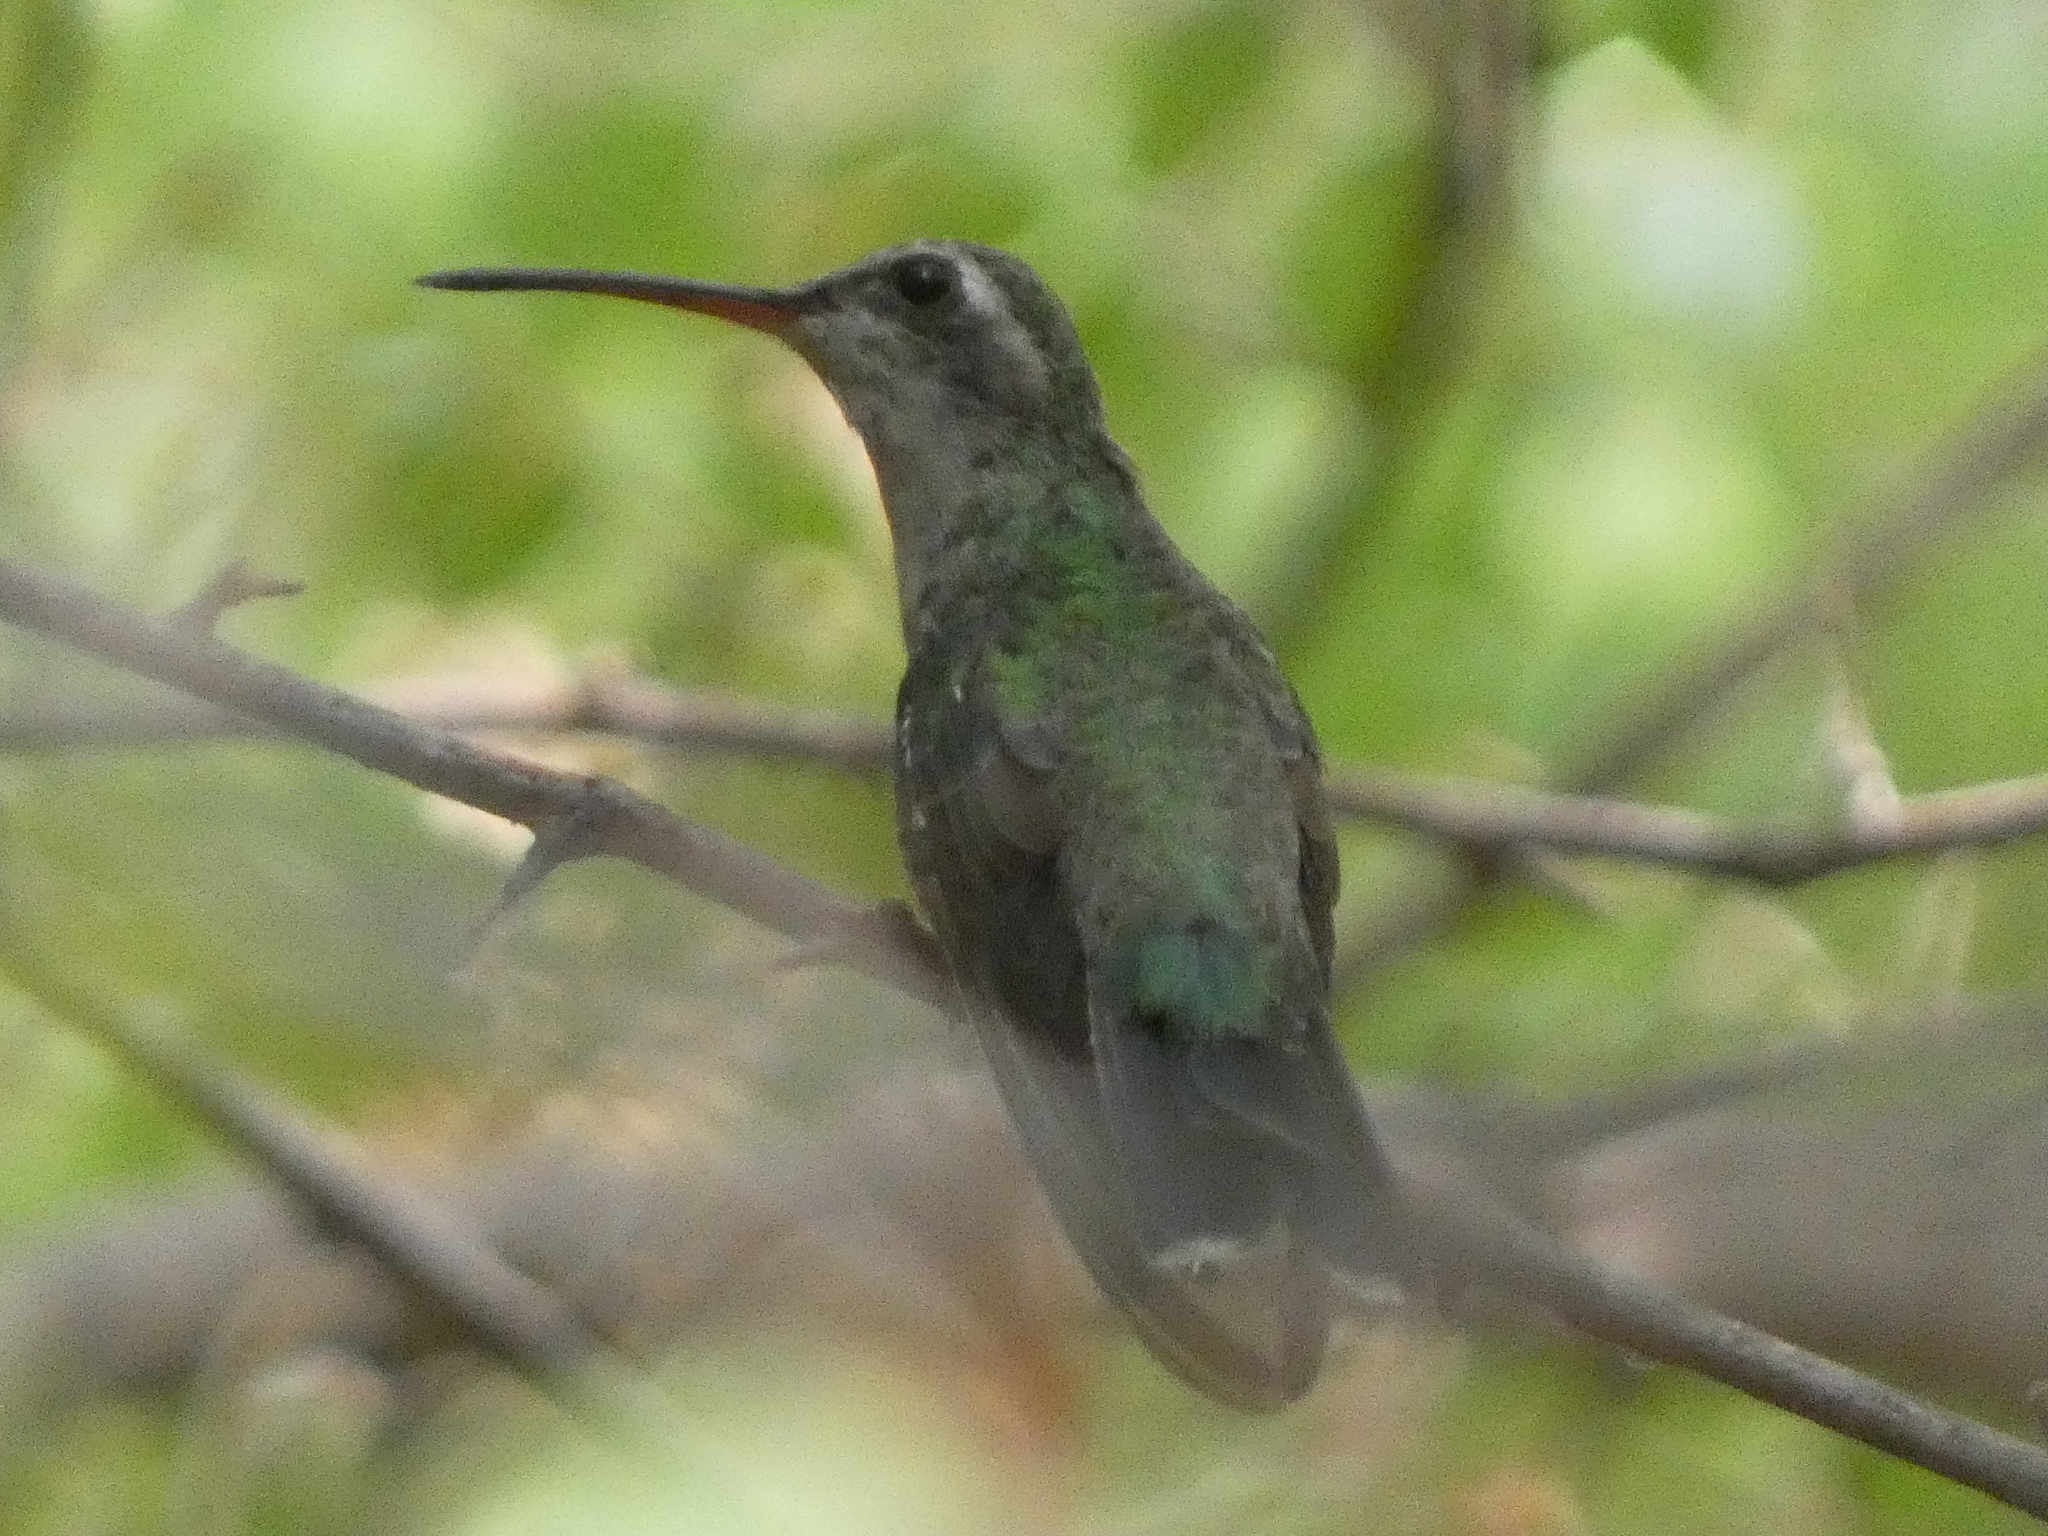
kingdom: Animalia
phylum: Chordata
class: Aves
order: Apodiformes
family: Trochilidae
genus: Cynanthus
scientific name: Cynanthus latirostris
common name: Broad-billed hummingbird
